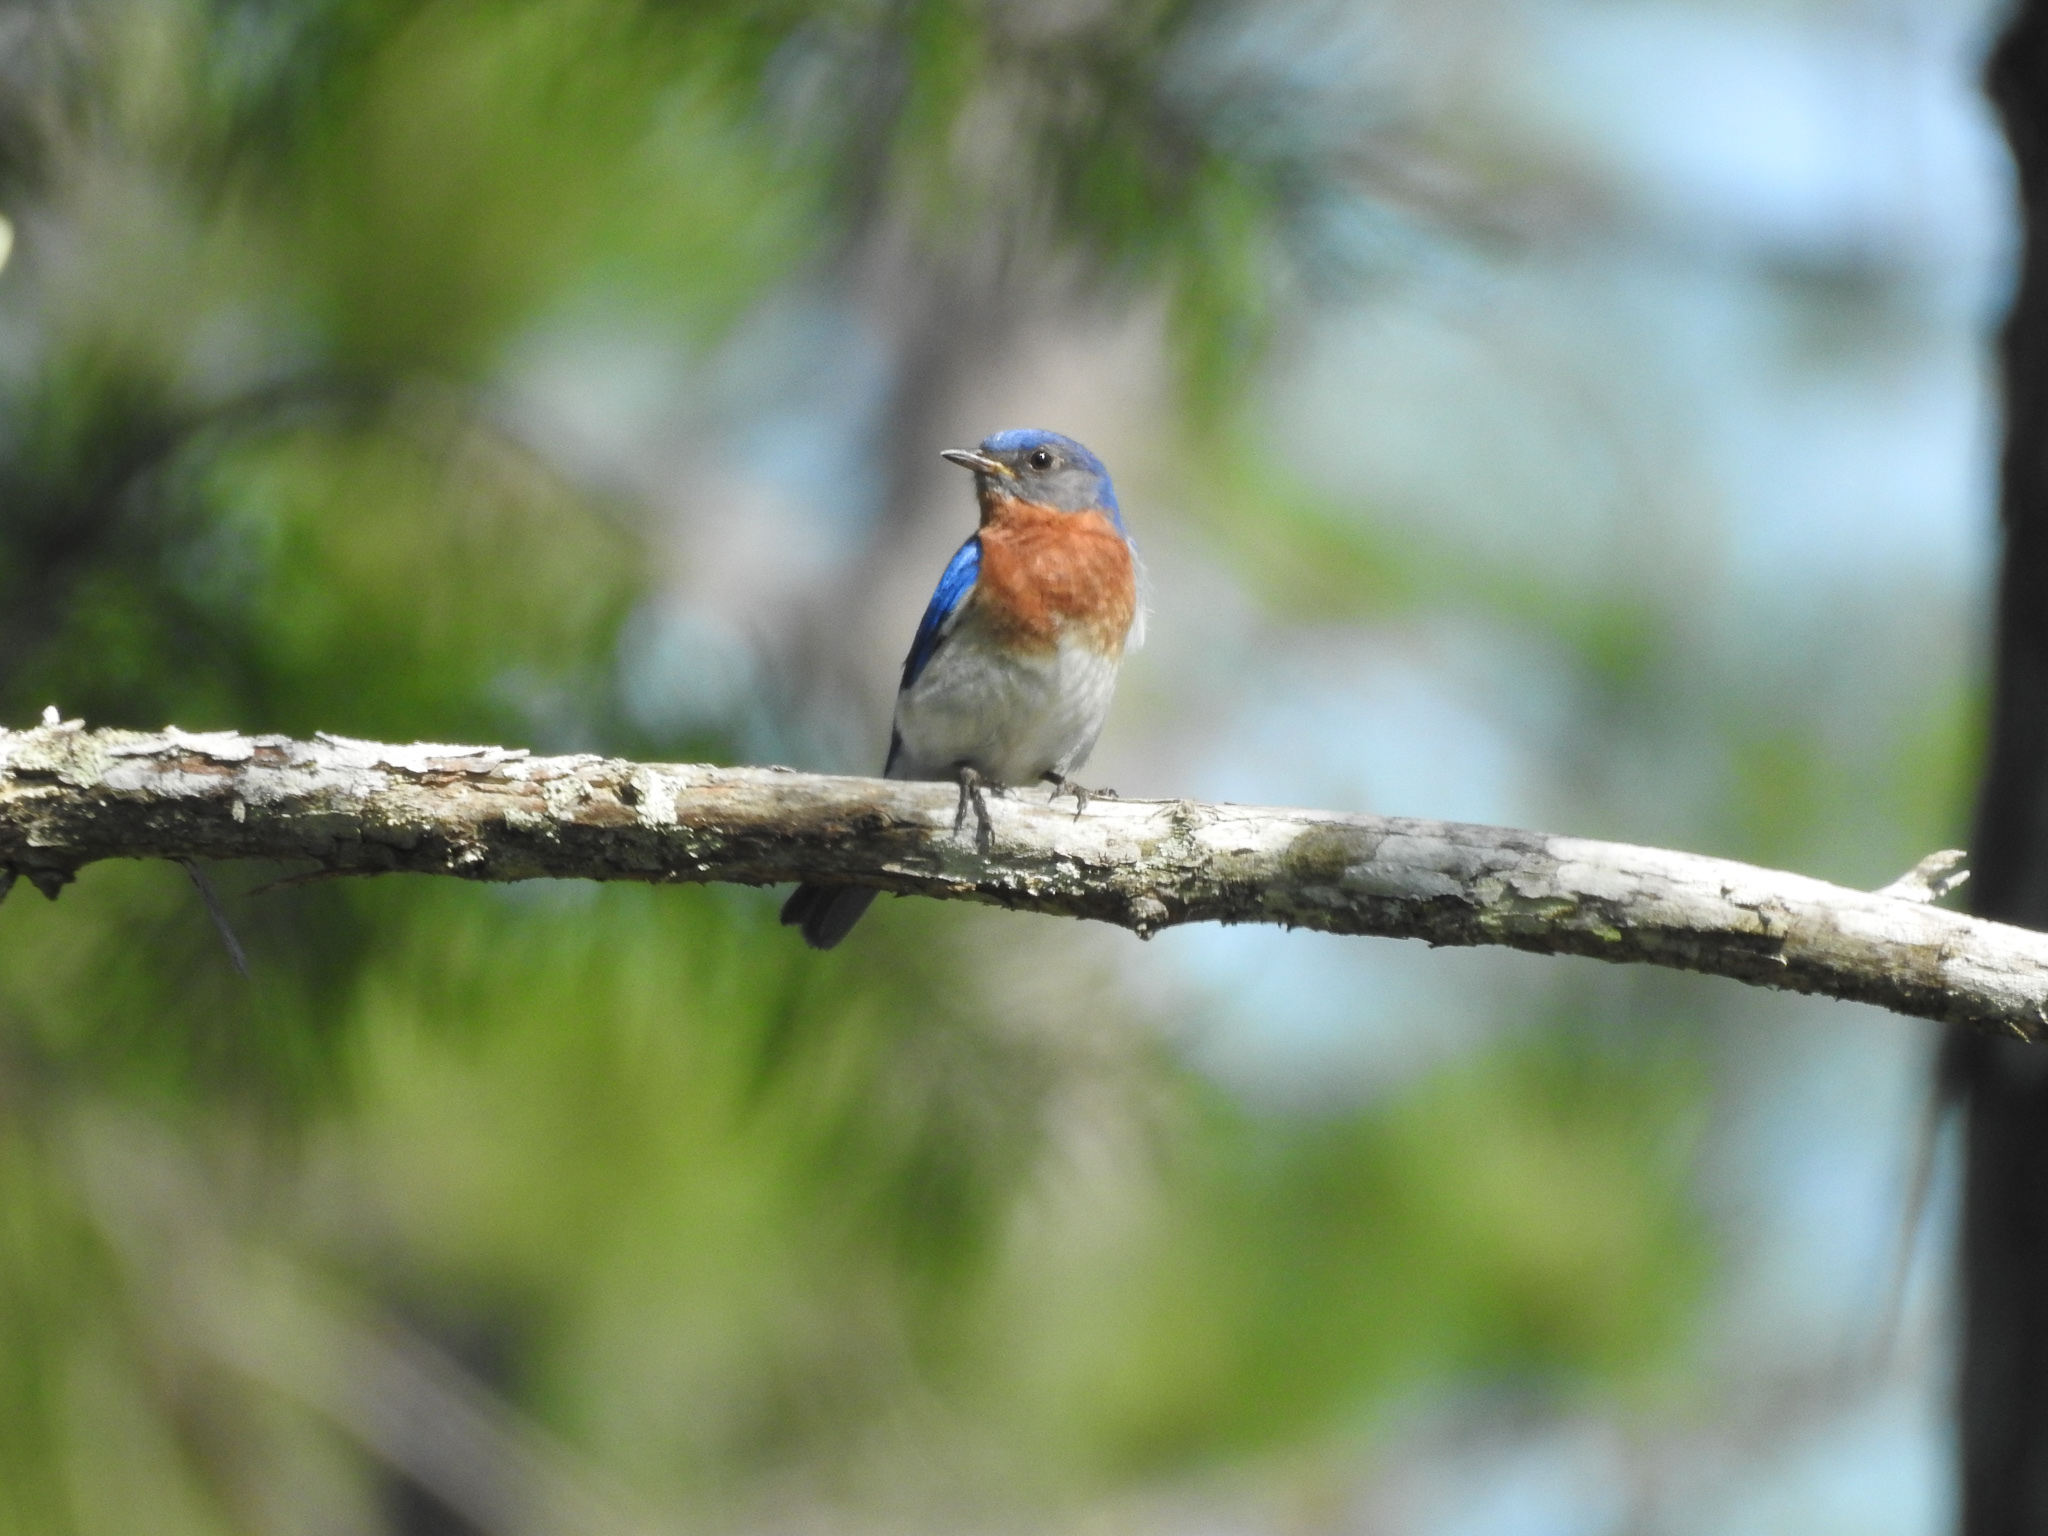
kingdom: Animalia
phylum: Chordata
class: Aves
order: Passeriformes
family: Turdidae
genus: Sialia
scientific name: Sialia sialis
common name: Eastern bluebird
